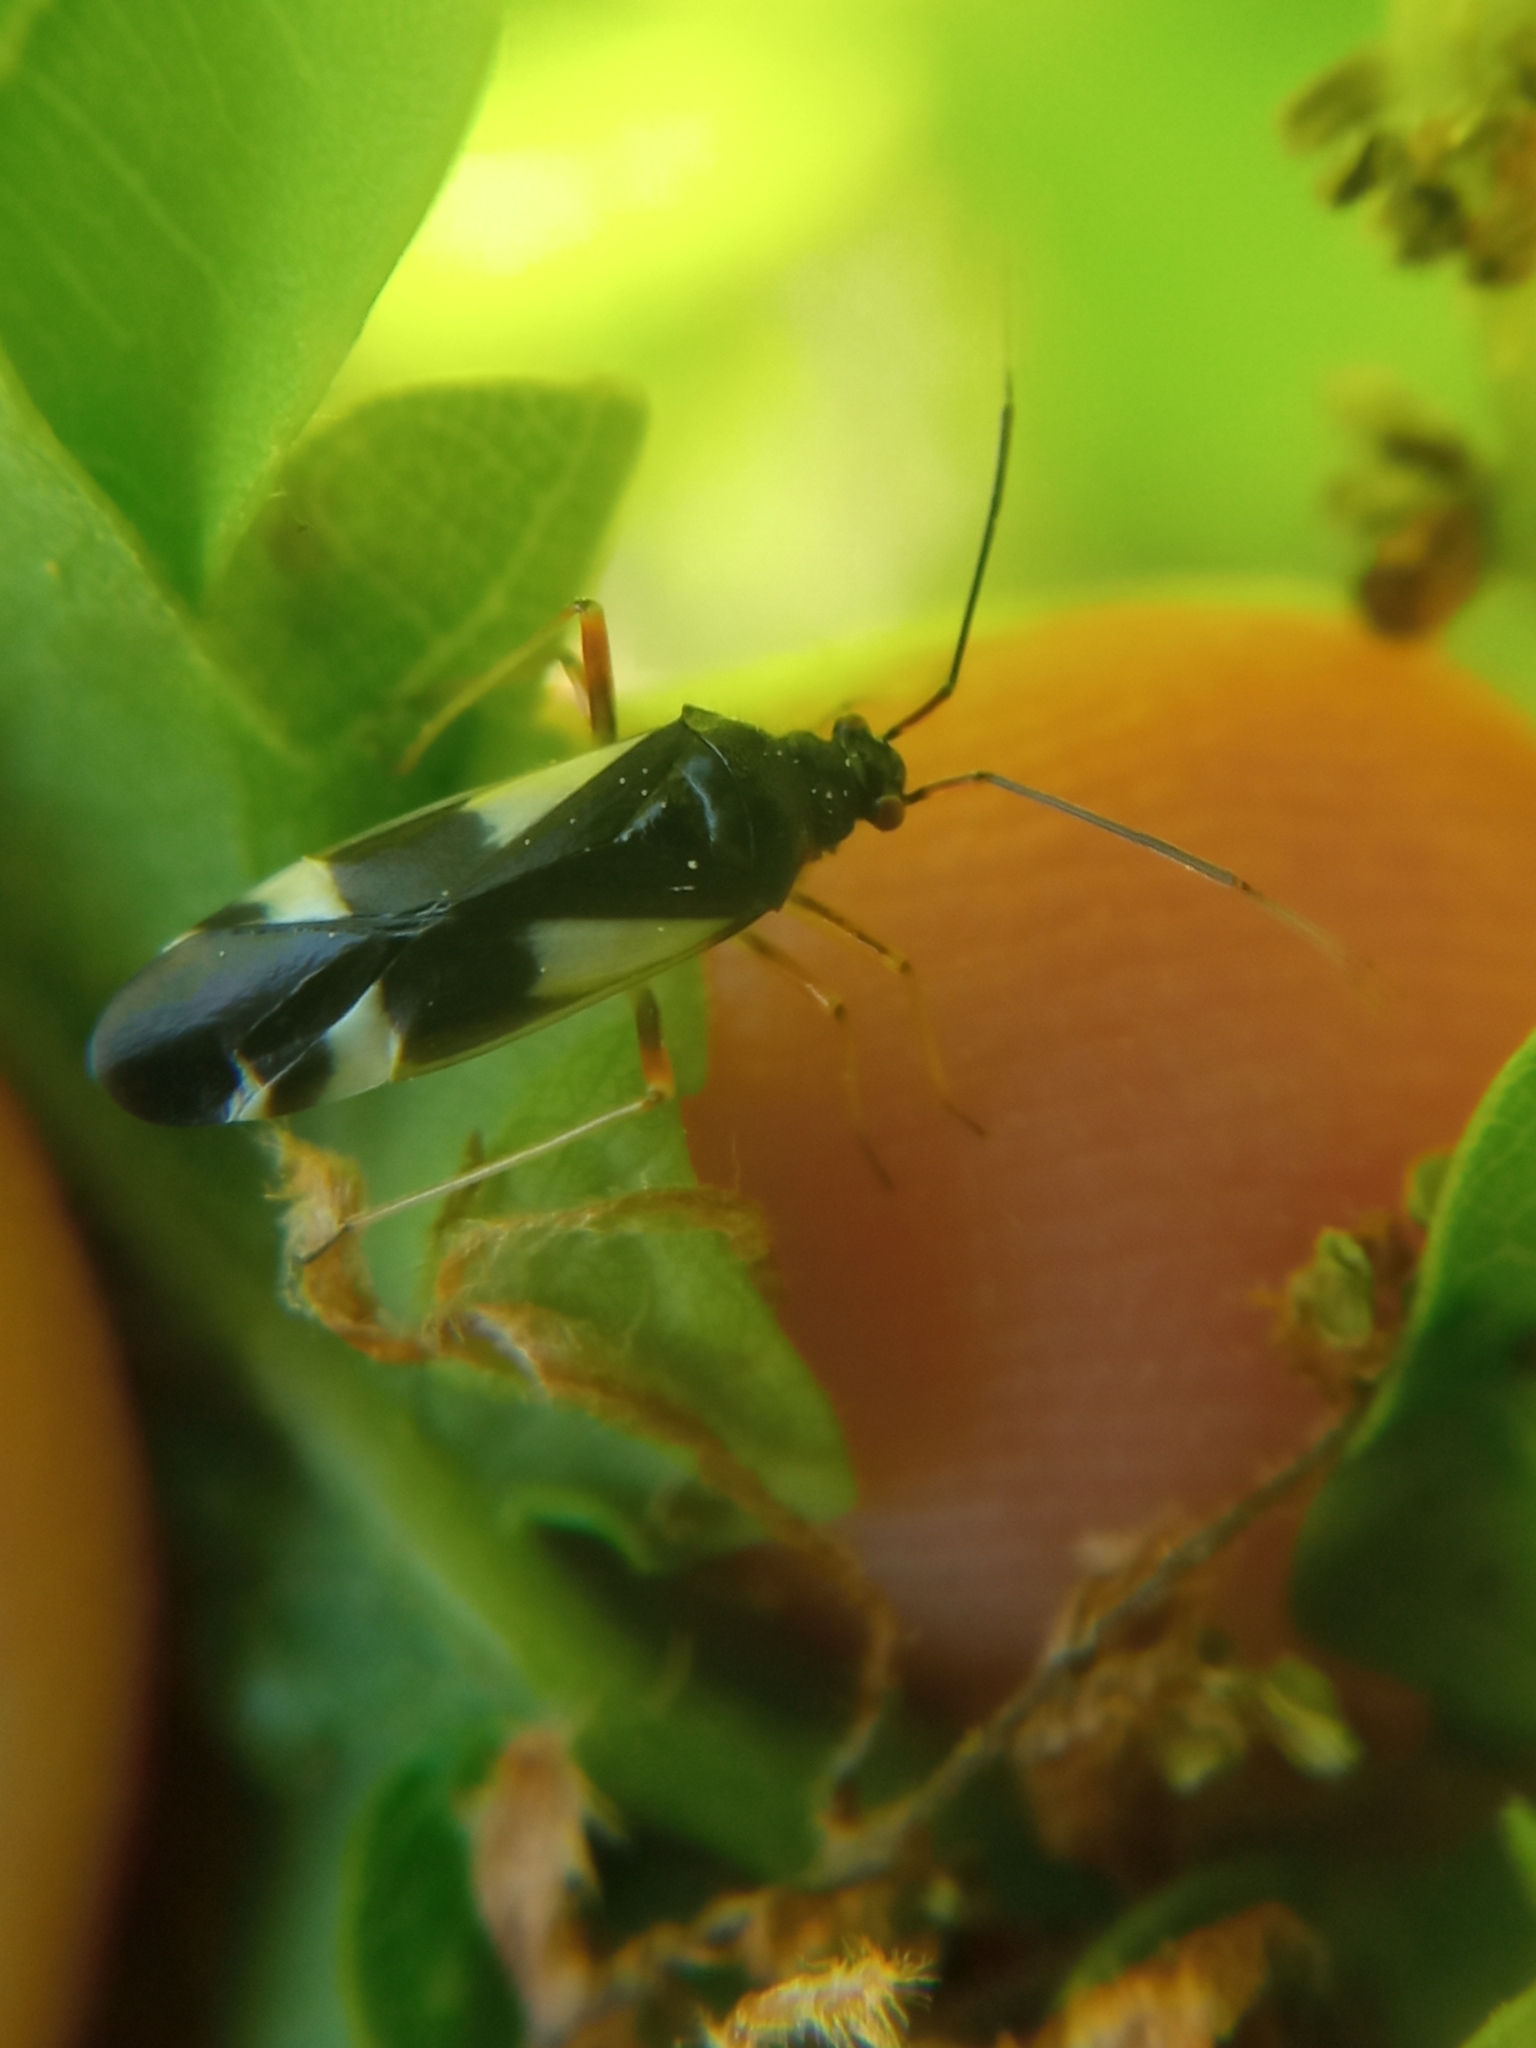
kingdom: Animalia
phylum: Arthropoda
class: Insecta
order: Hemiptera
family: Miridae
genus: Dryophilocoris
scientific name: Dryophilocoris flavoquadrimaculatus
